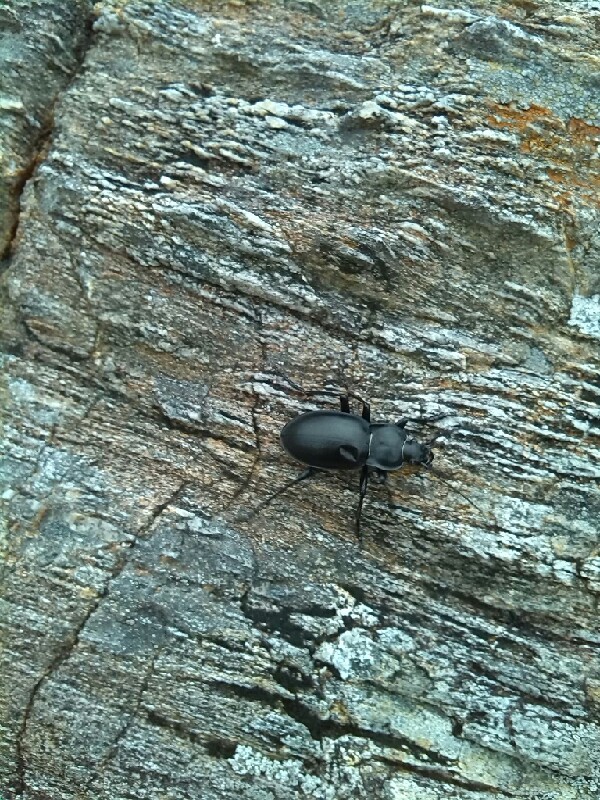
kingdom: Animalia
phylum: Arthropoda
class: Insecta
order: Coleoptera
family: Carabidae
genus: Carabus
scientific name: Carabus glabratus
